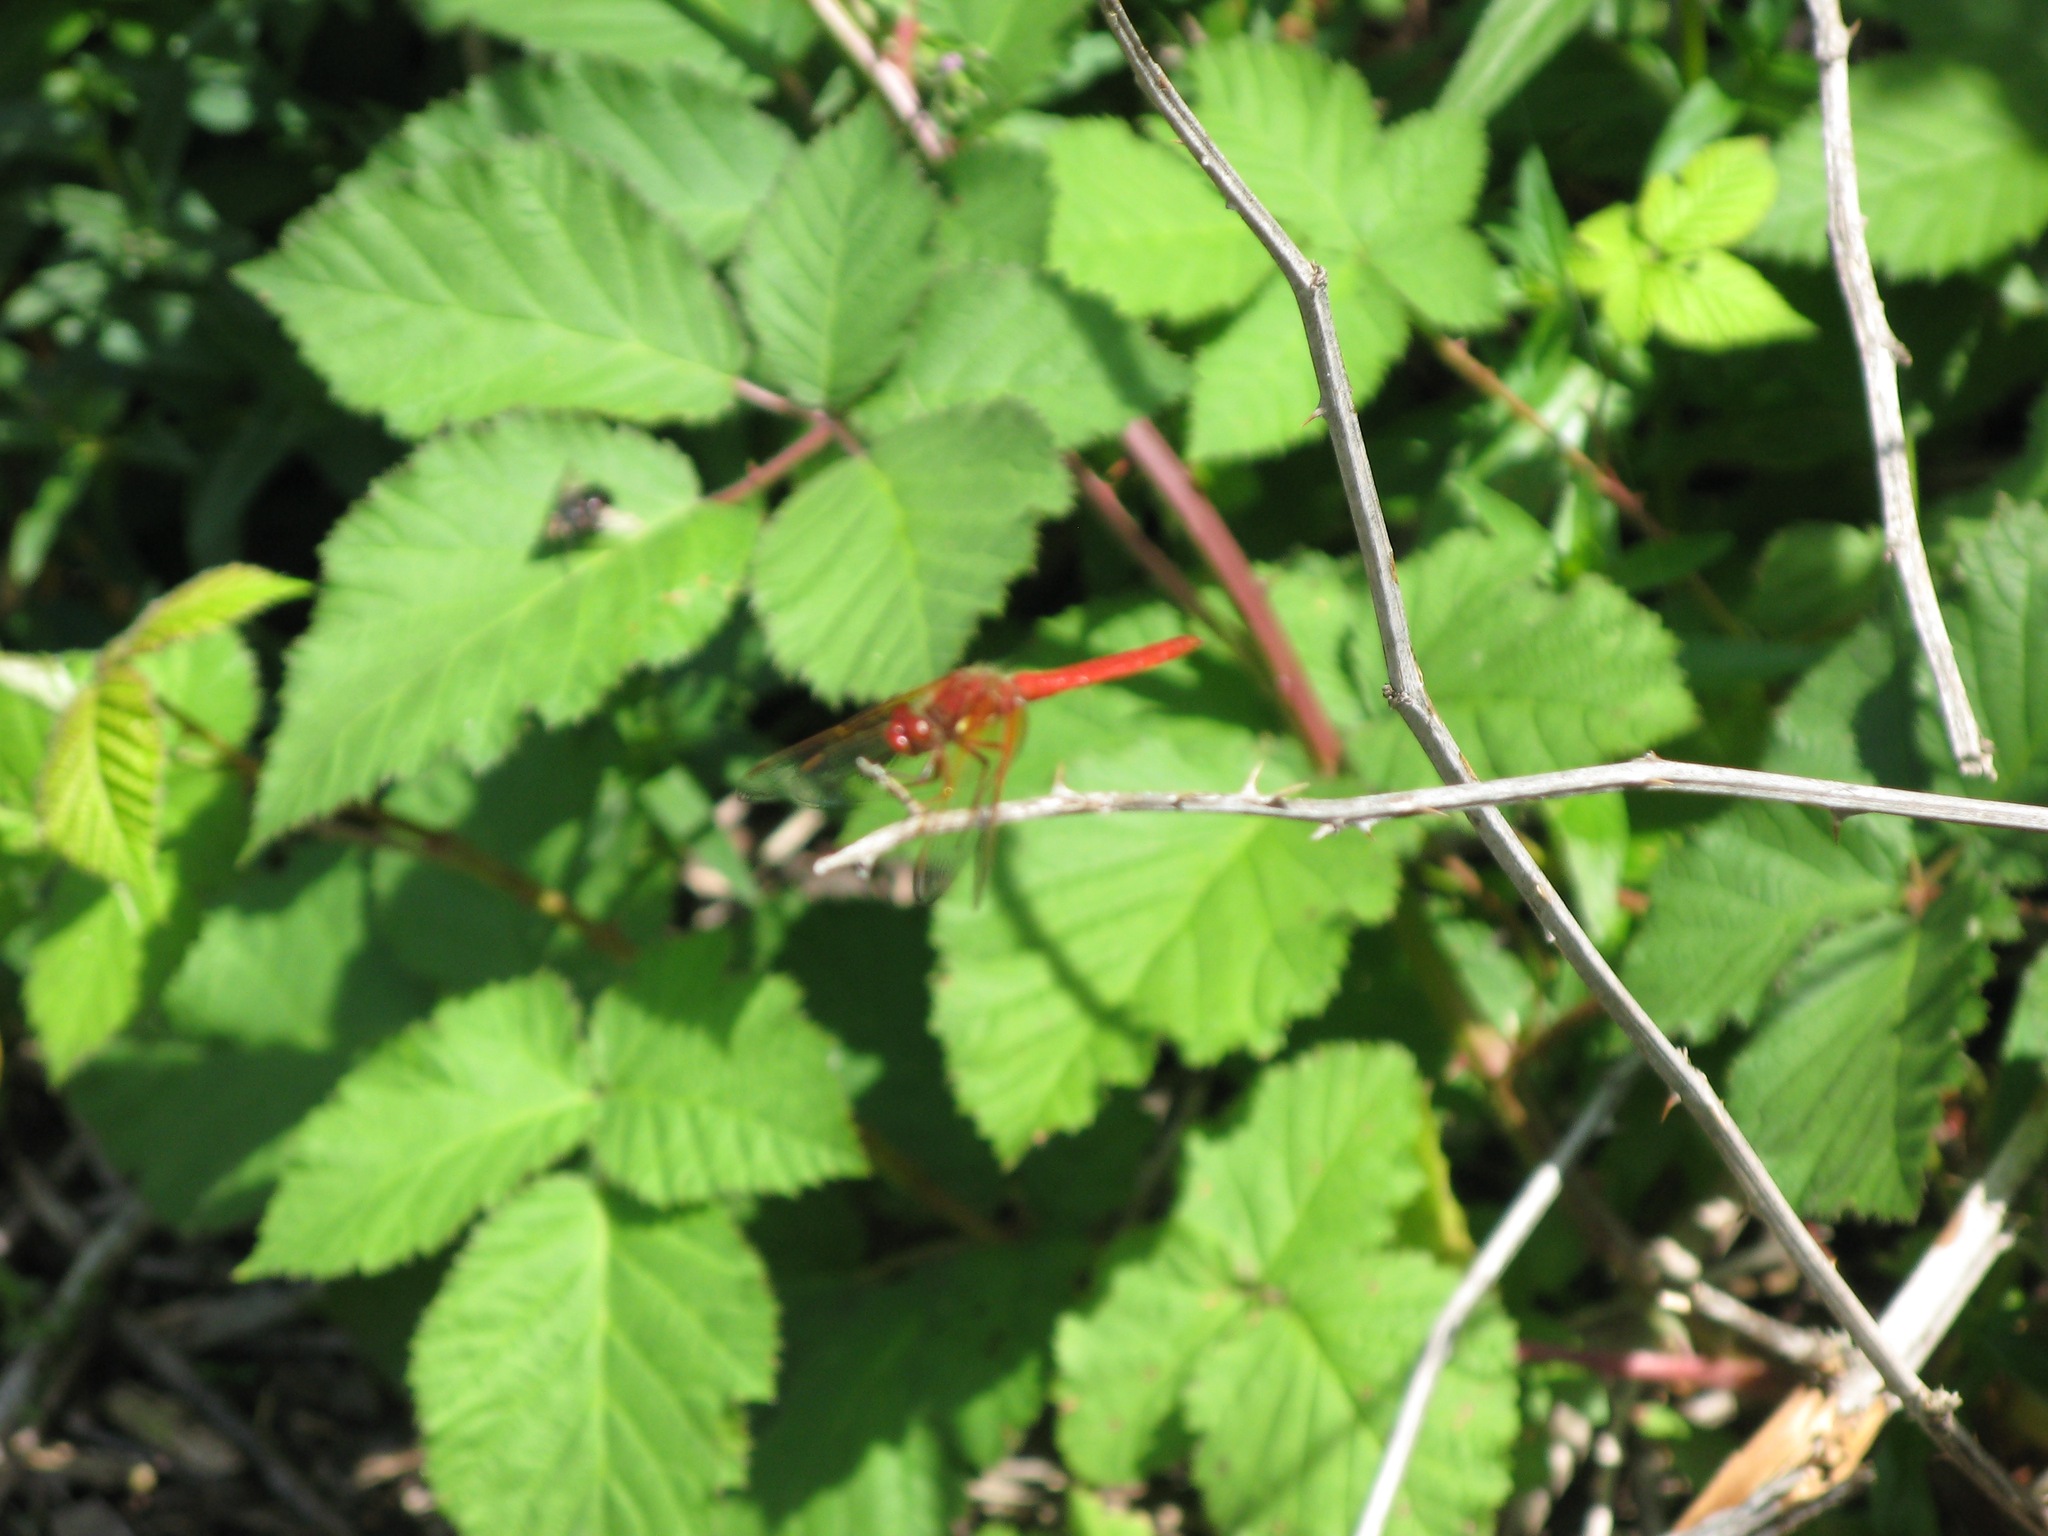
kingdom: Animalia
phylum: Arthropoda
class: Insecta
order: Odonata
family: Libellulidae
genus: Sympetrum
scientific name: Sympetrum illotum
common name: Cardinal meadowhawk
